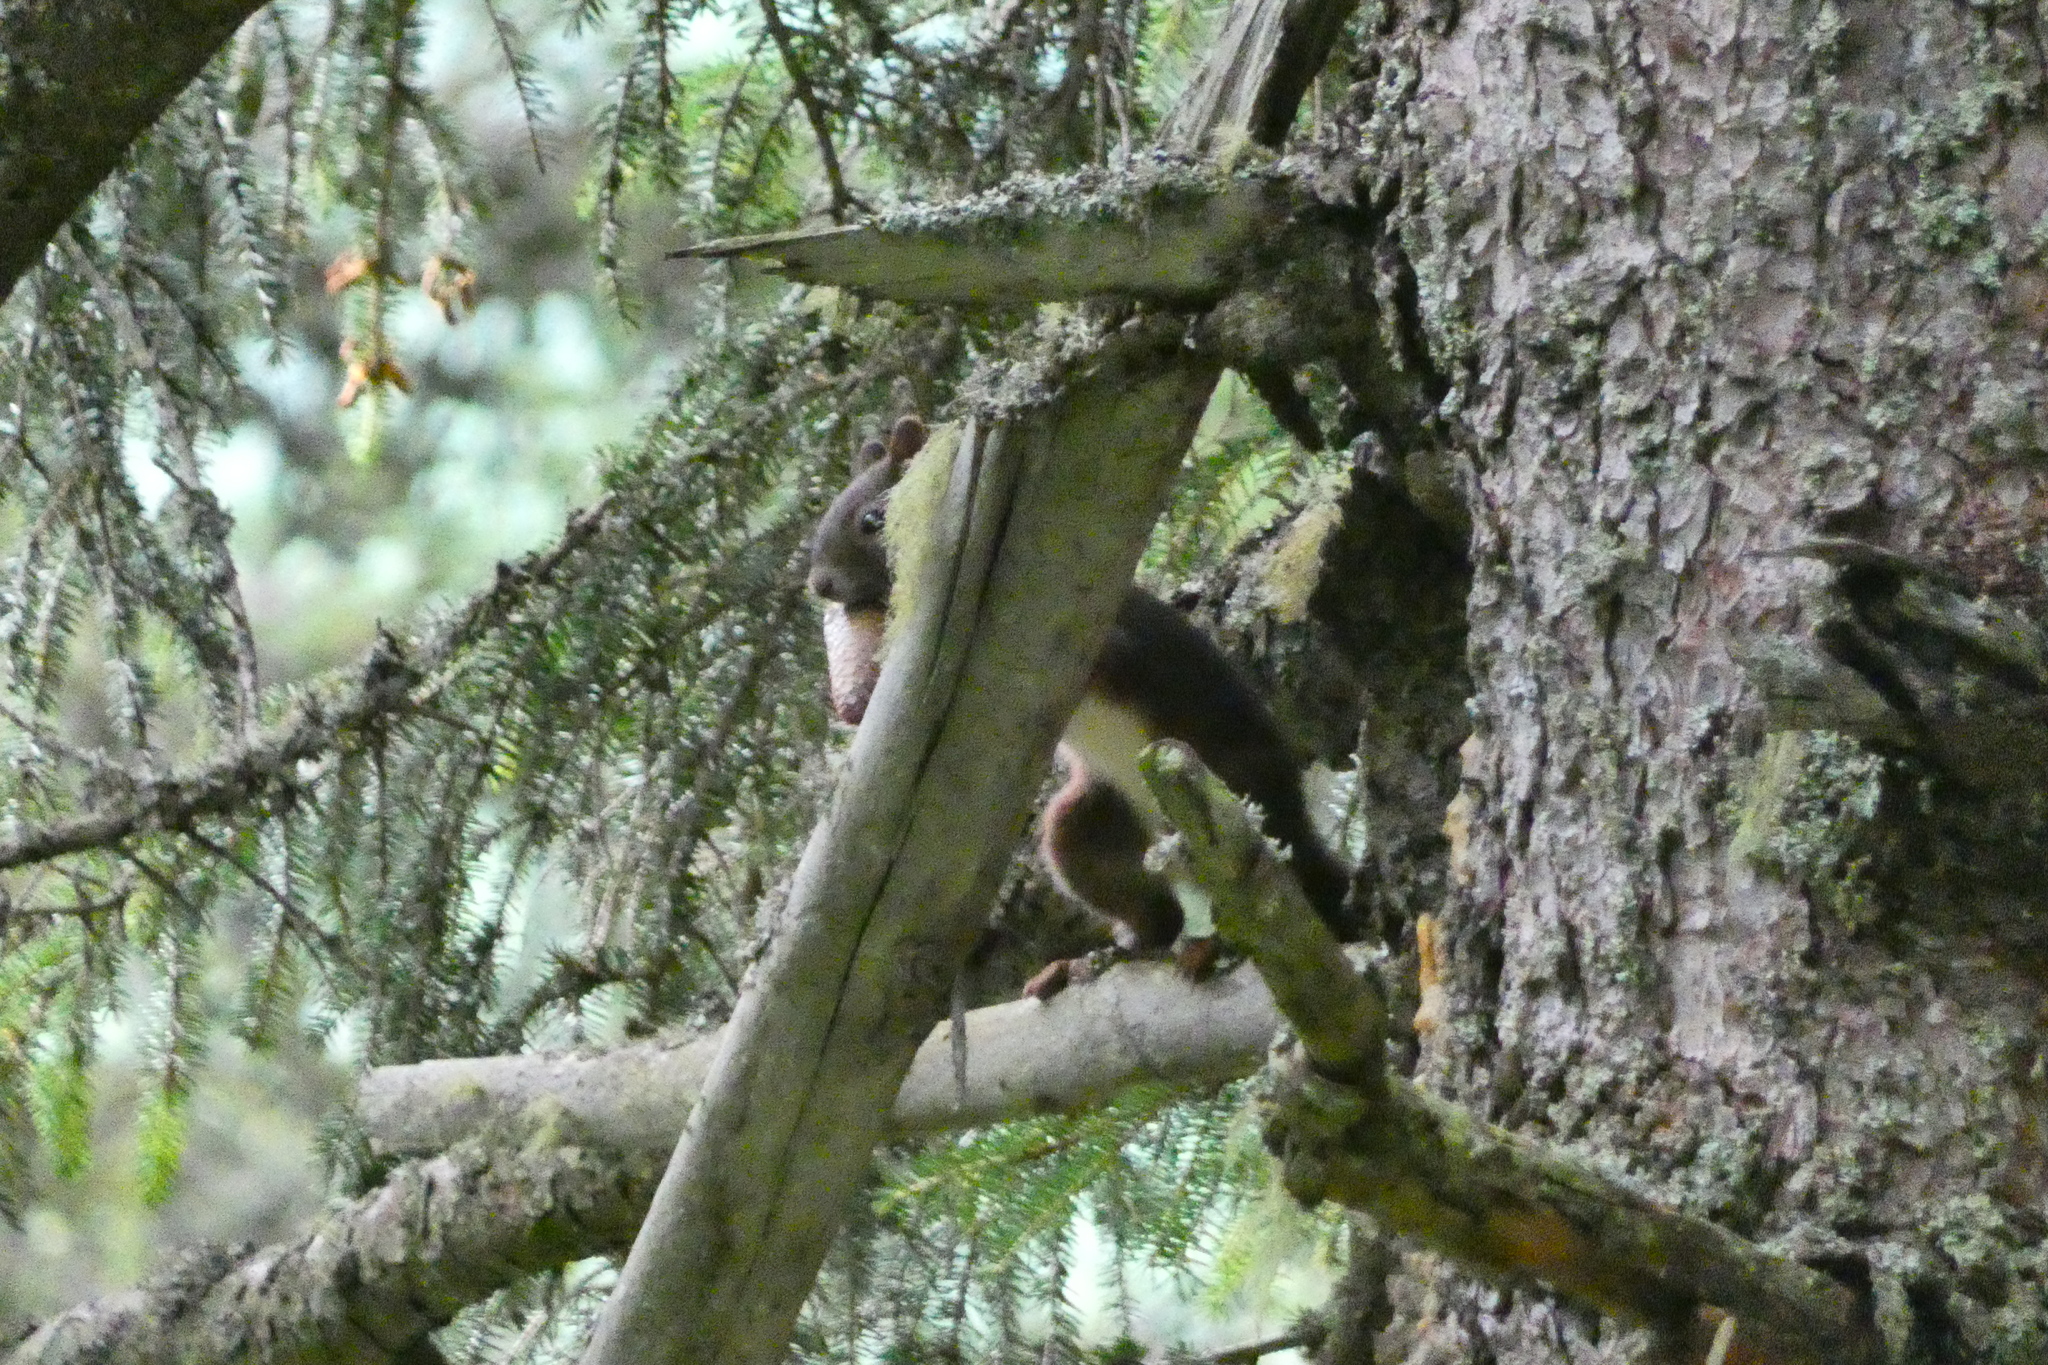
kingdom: Animalia
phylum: Chordata
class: Mammalia
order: Rodentia
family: Sciuridae
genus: Sciurus
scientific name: Sciurus vulgaris
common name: Eurasian red squirrel
